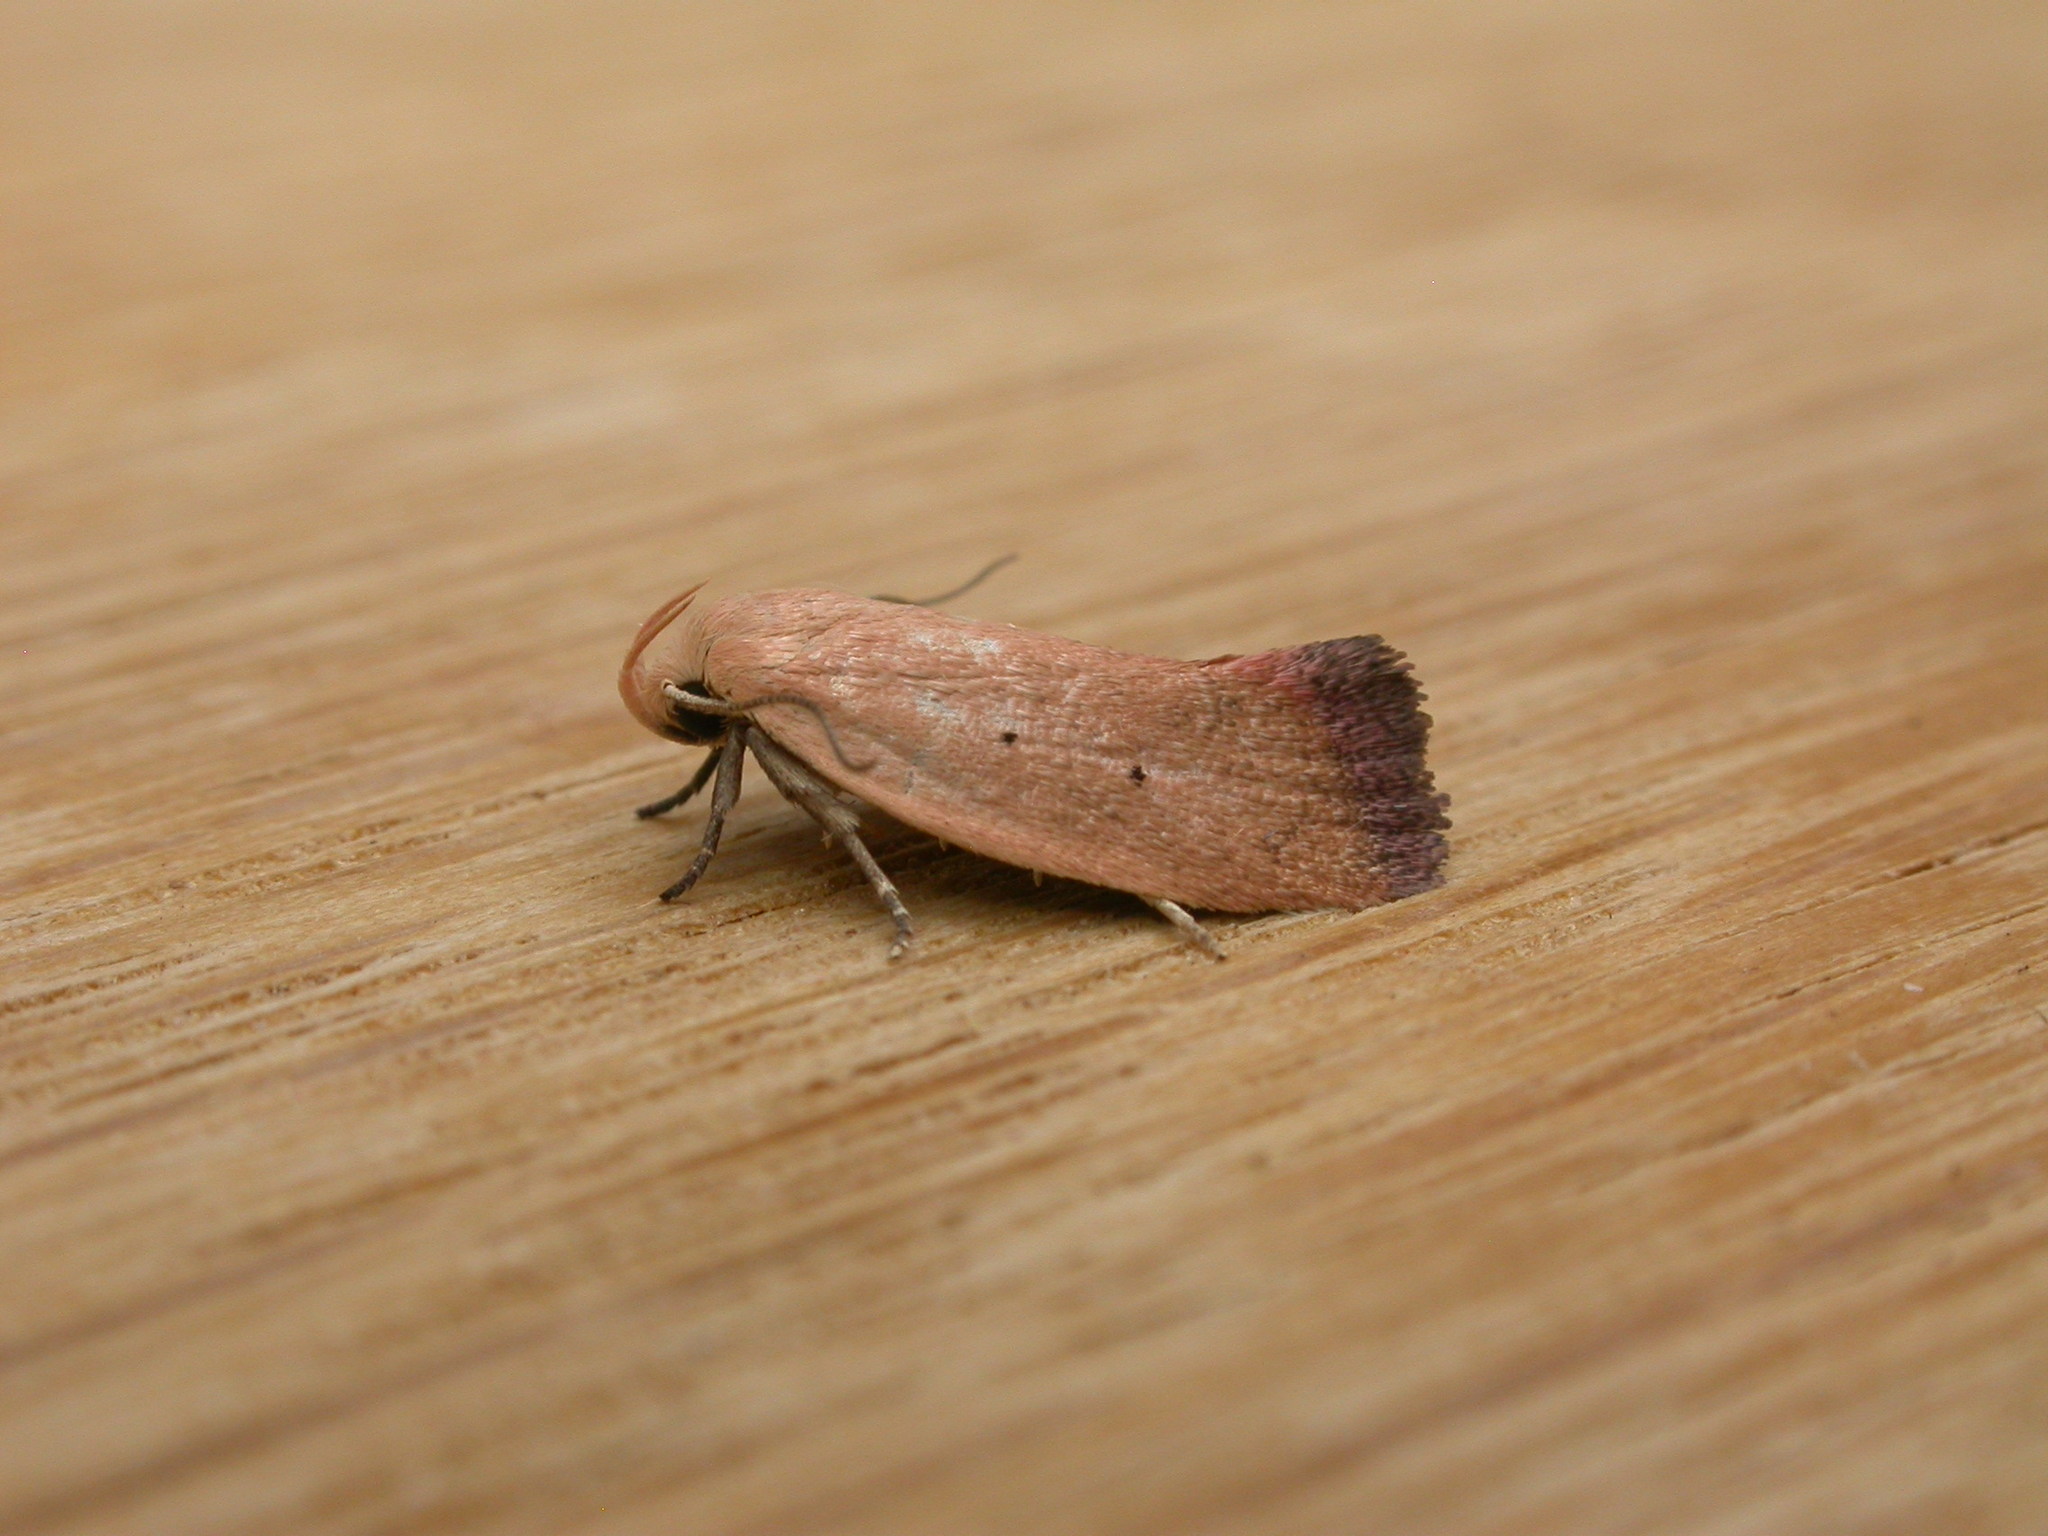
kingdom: Animalia
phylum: Arthropoda
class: Insecta
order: Lepidoptera
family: Oecophoridae
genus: Acanthodela
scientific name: Acanthodela protophaes
